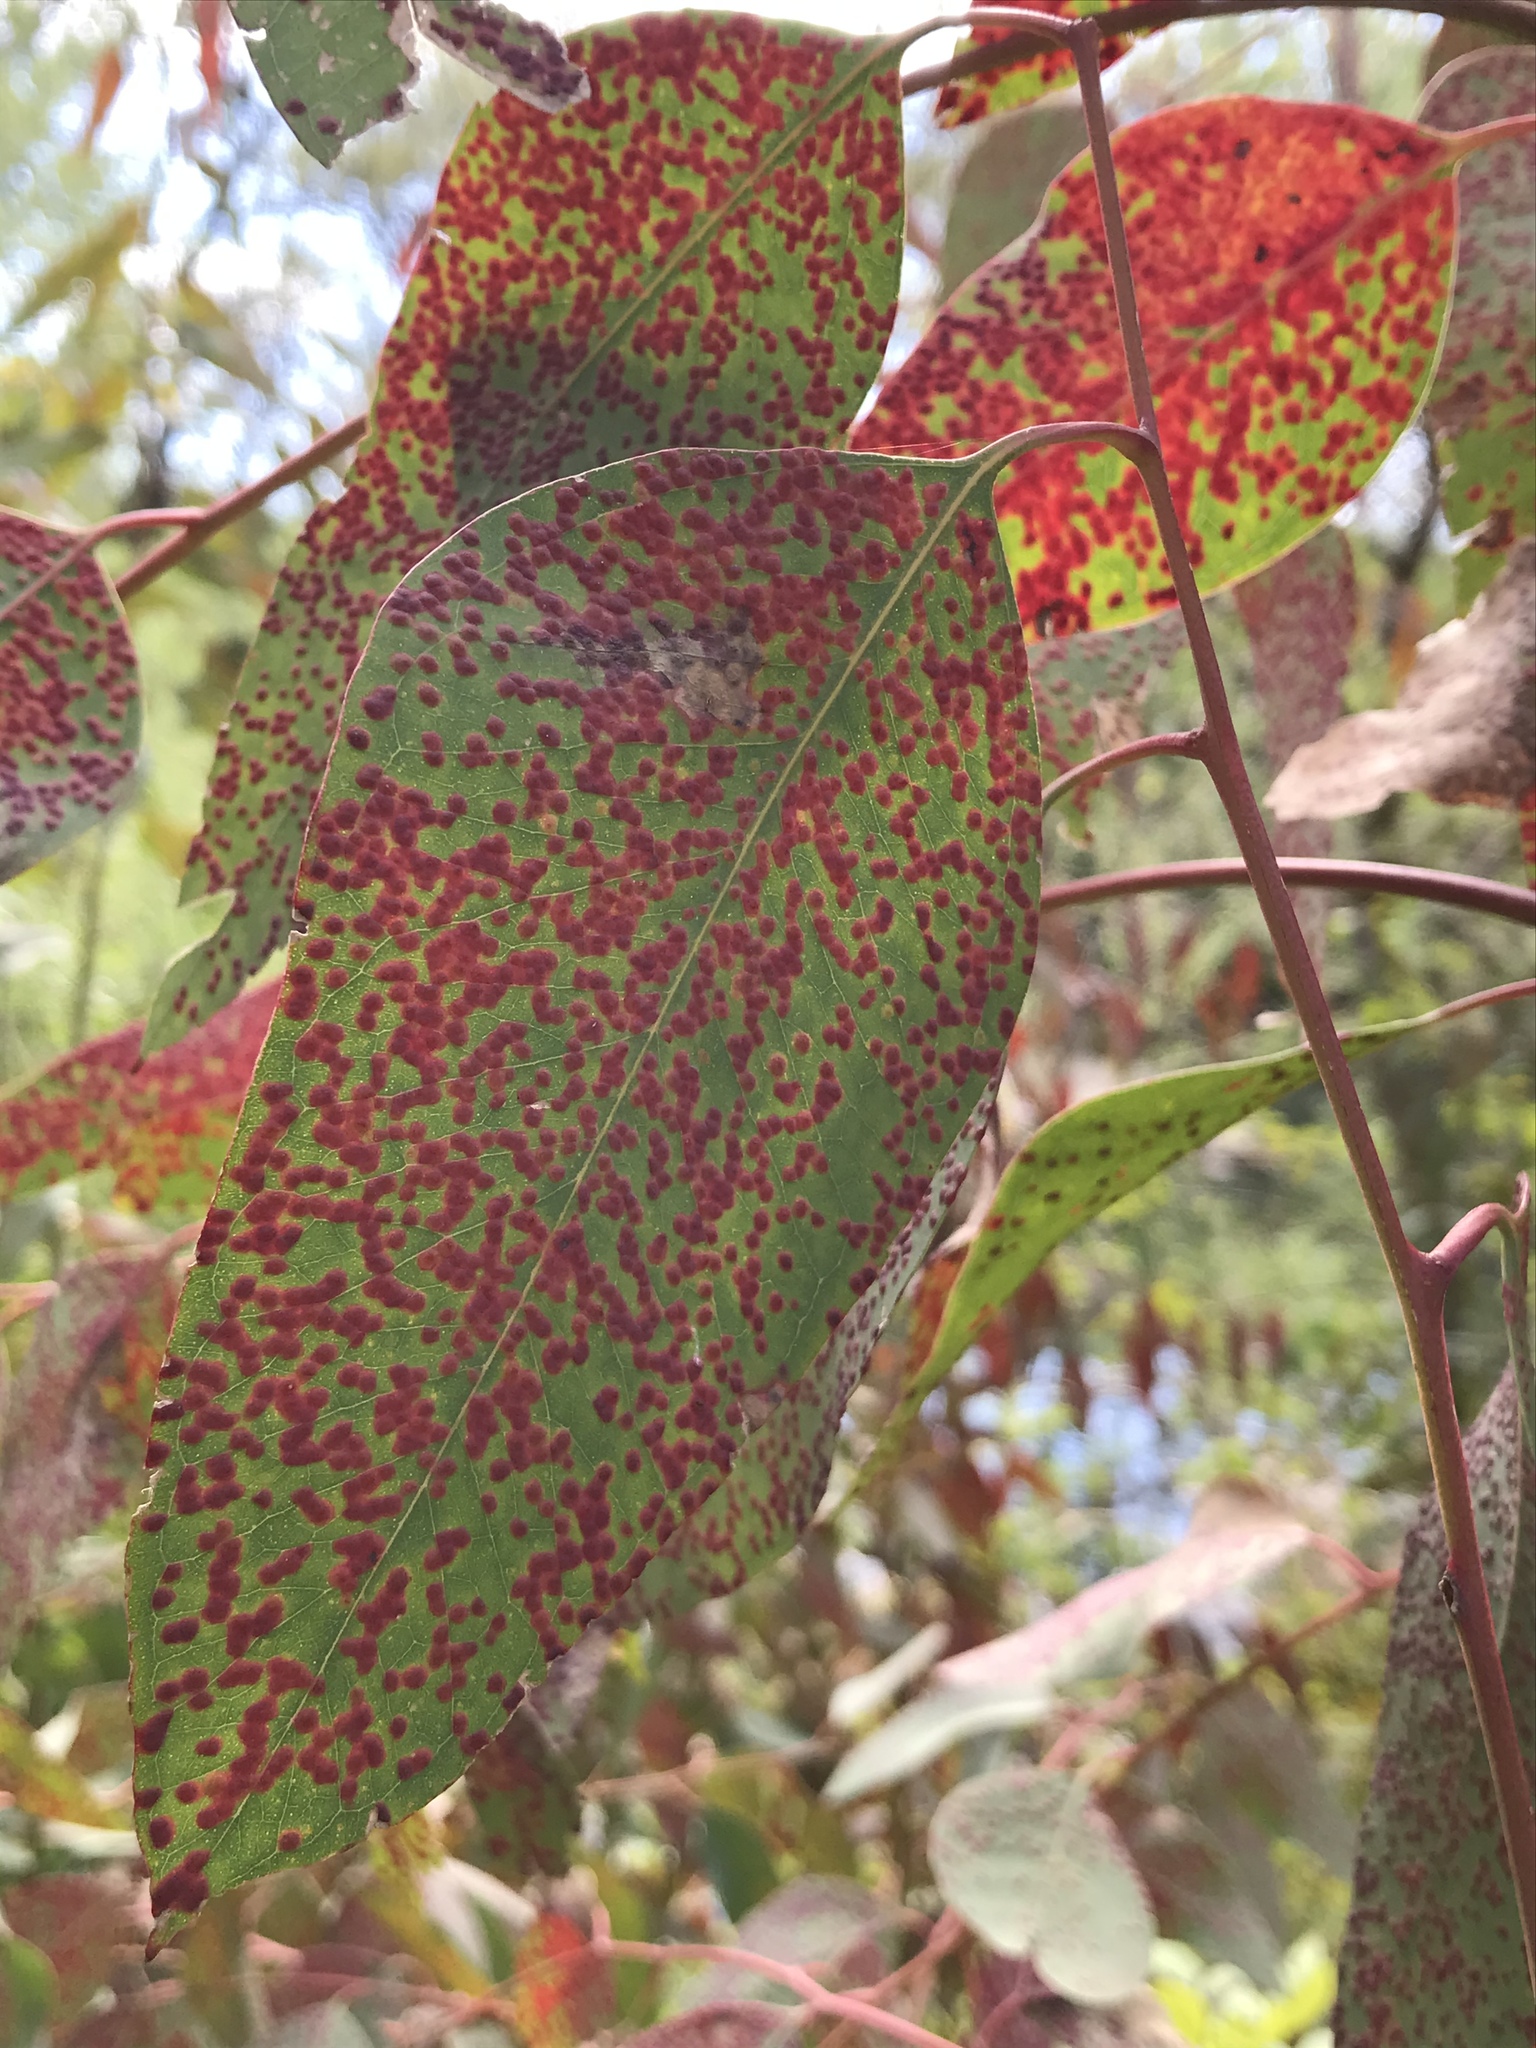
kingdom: Plantae
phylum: Tracheophyta
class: Magnoliopsida
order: Myrtales
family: Myrtaceae
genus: Eucalyptus
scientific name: Eucalyptus camaldulensis
